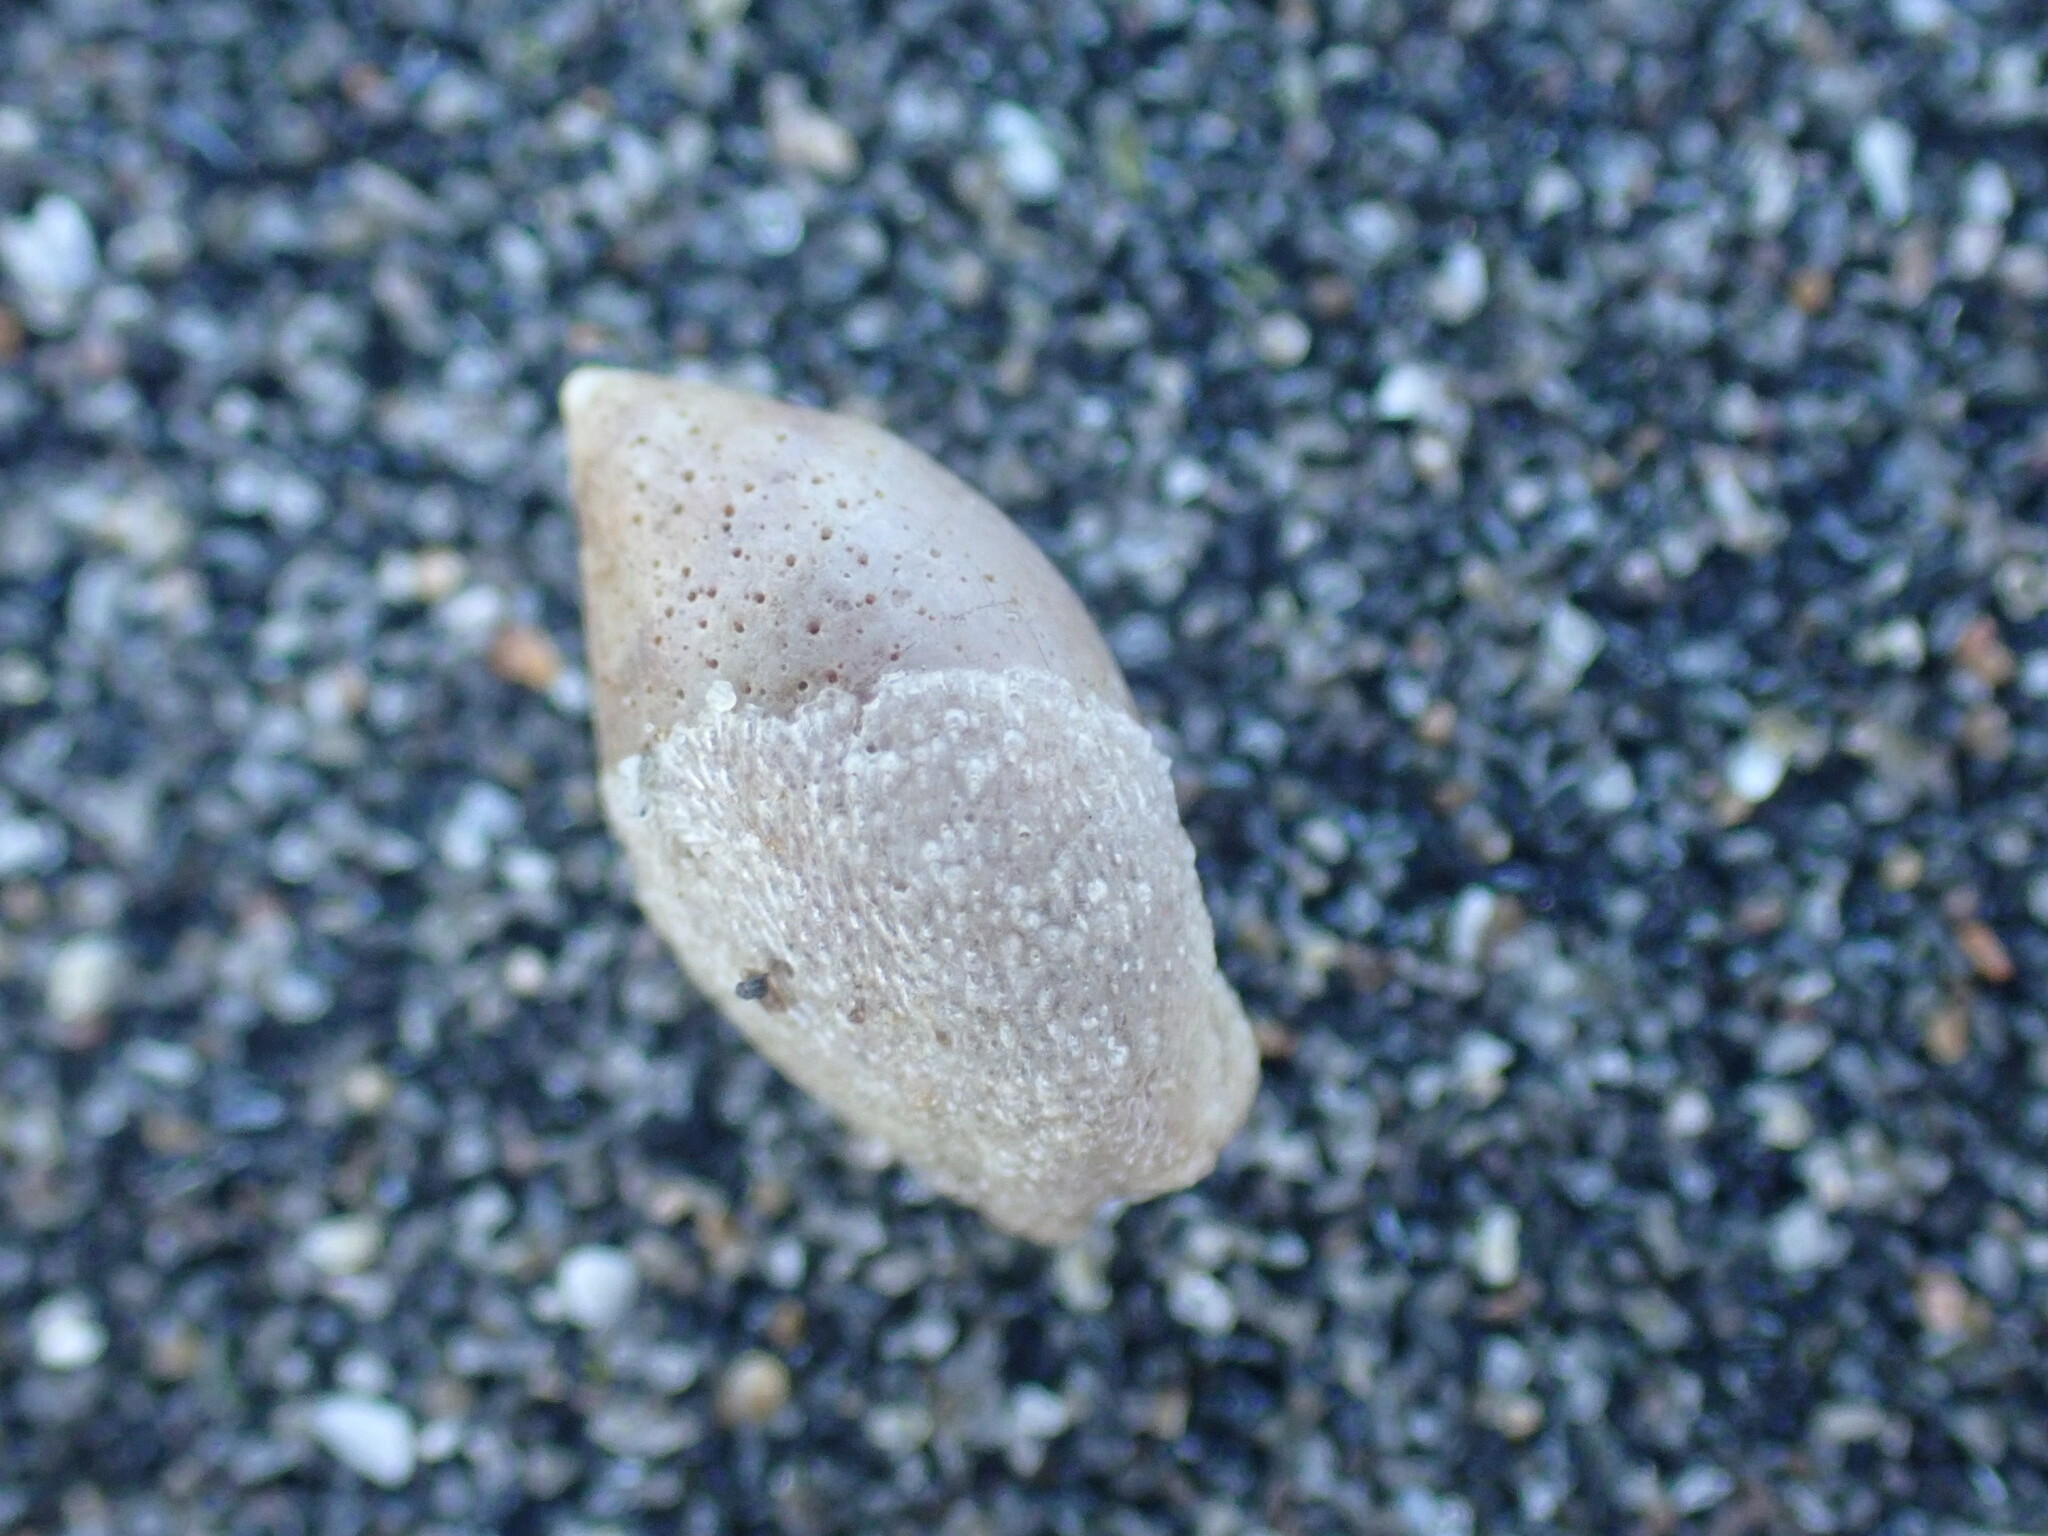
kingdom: Animalia
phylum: Mollusca
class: Gastropoda
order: Neogastropoda
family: Ancillariidae
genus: Amalda
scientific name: Amalda australis
